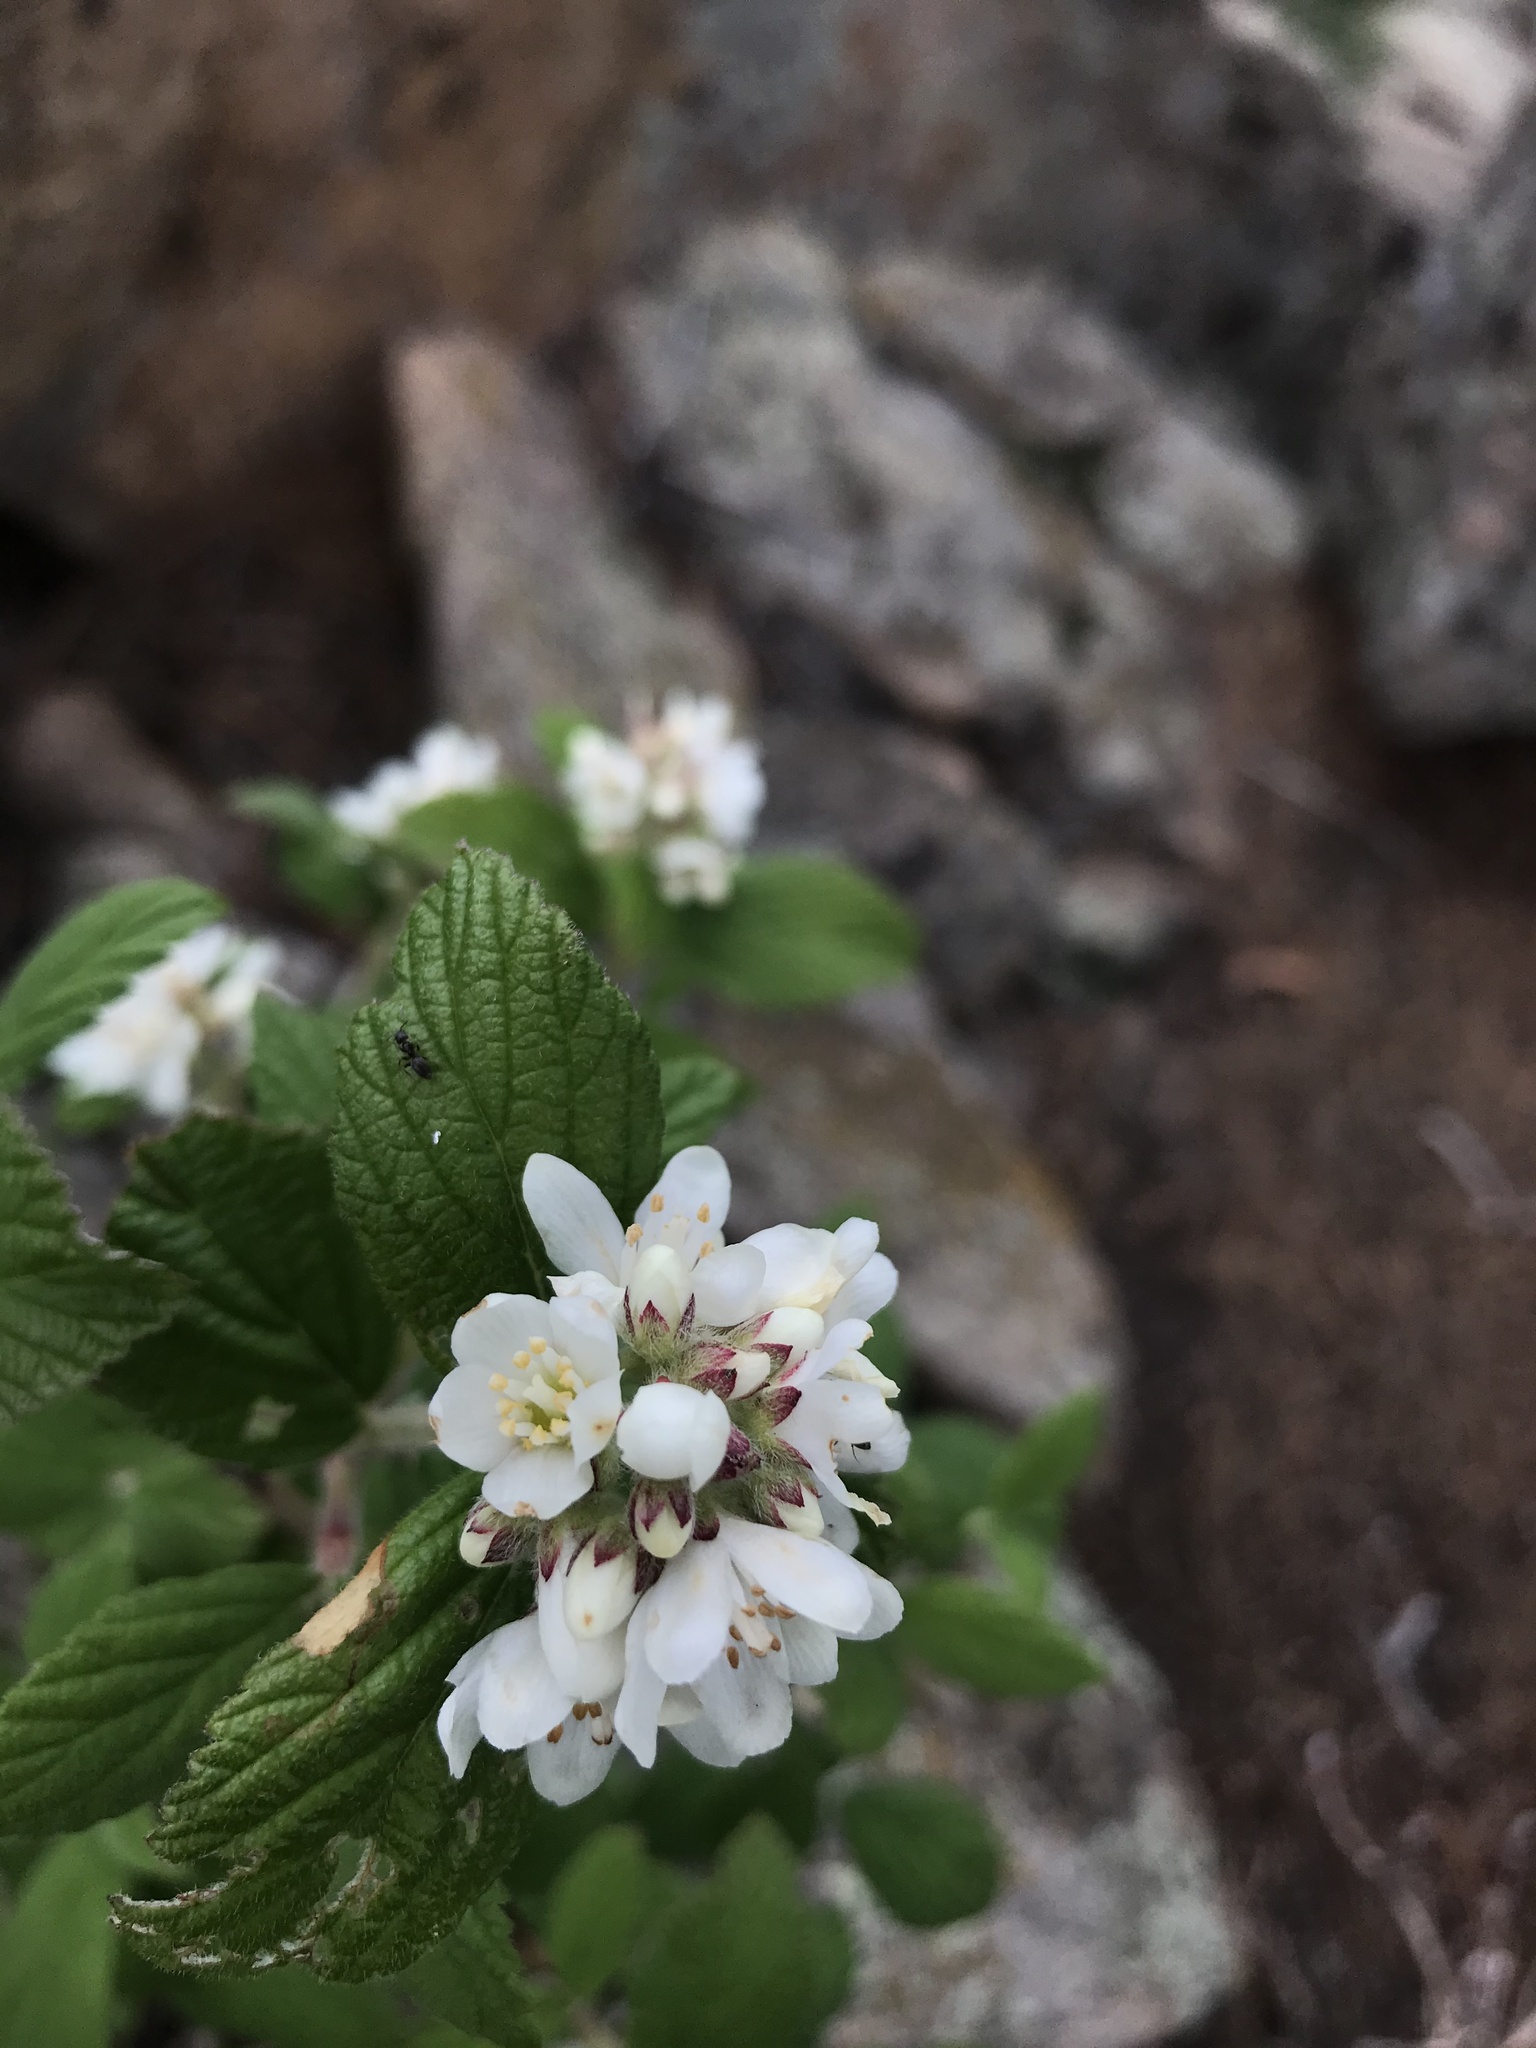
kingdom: Plantae
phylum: Tracheophyta
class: Magnoliopsida
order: Cornales
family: Hydrangeaceae
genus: Jamesia
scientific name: Jamesia americana
